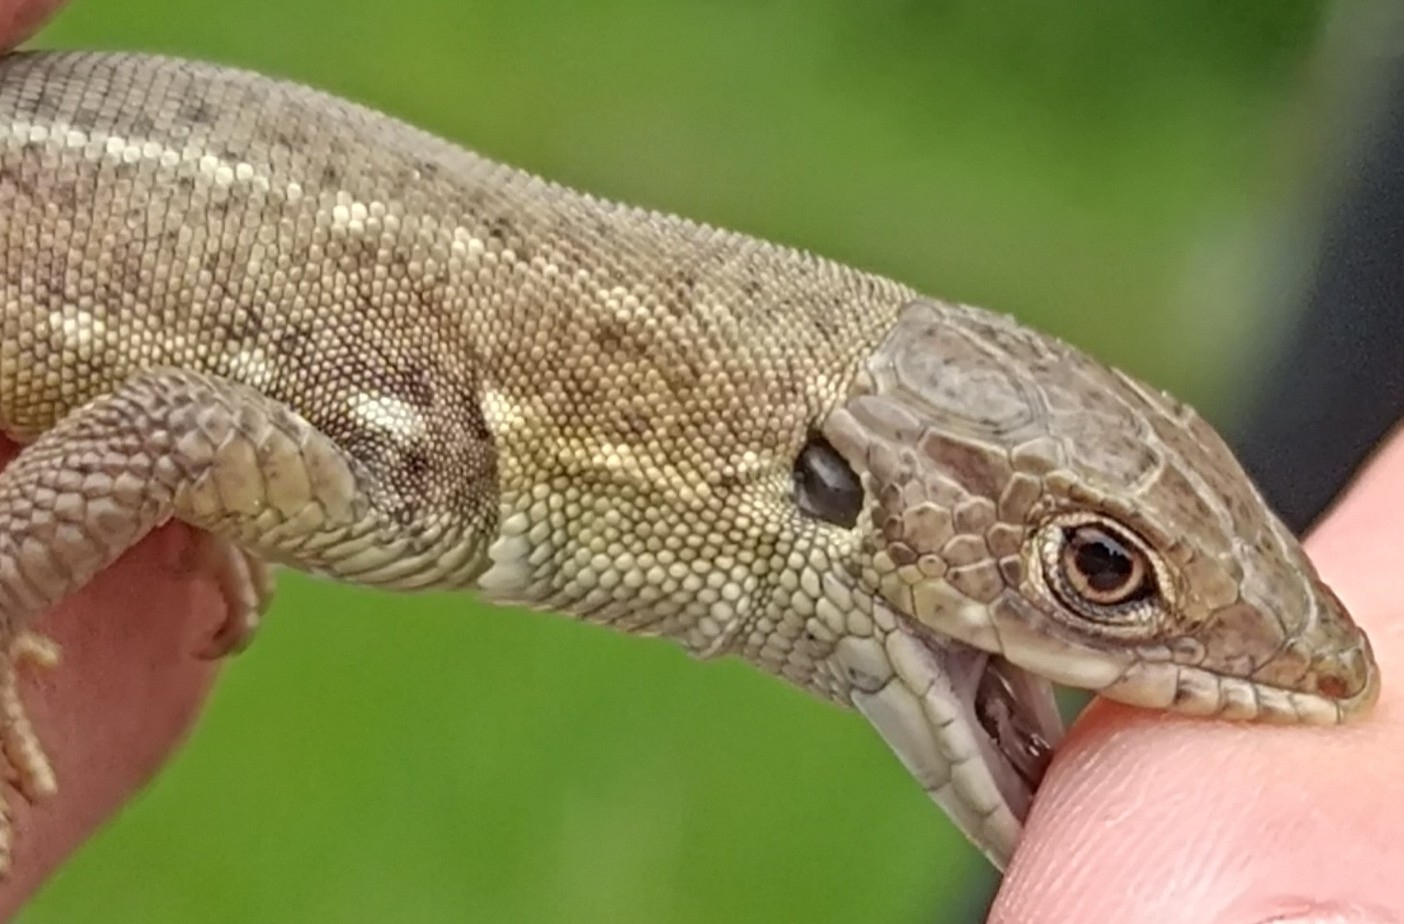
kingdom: Animalia
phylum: Chordata
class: Squamata
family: Lacertidae
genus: Lacerta
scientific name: Lacerta viridis
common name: European green lizard
